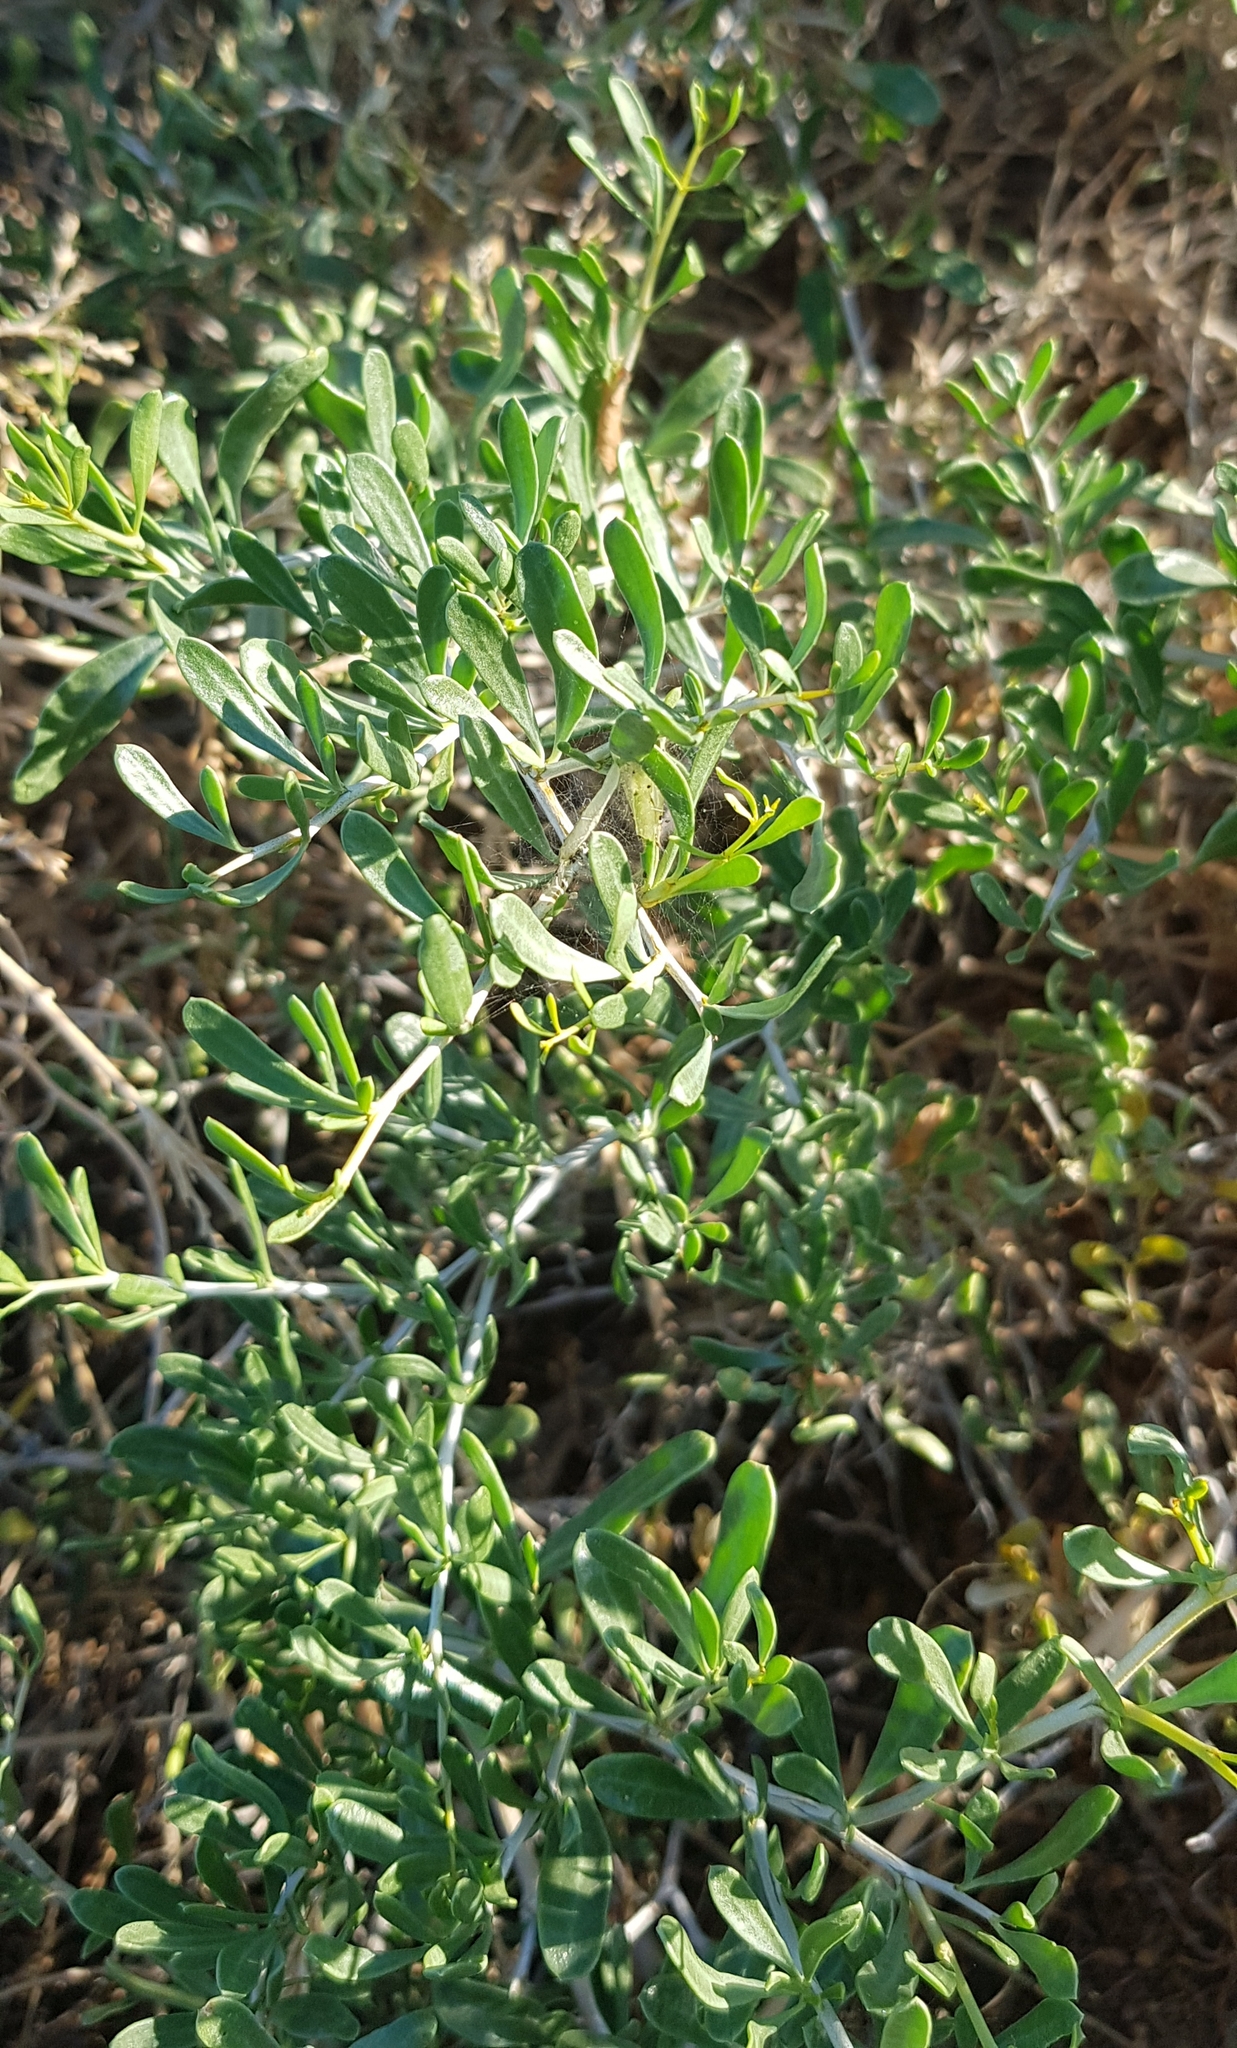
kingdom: Plantae
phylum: Tracheophyta
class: Magnoliopsida
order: Sapindales
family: Nitrariaceae
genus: Nitraria
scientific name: Nitraria sibirica
